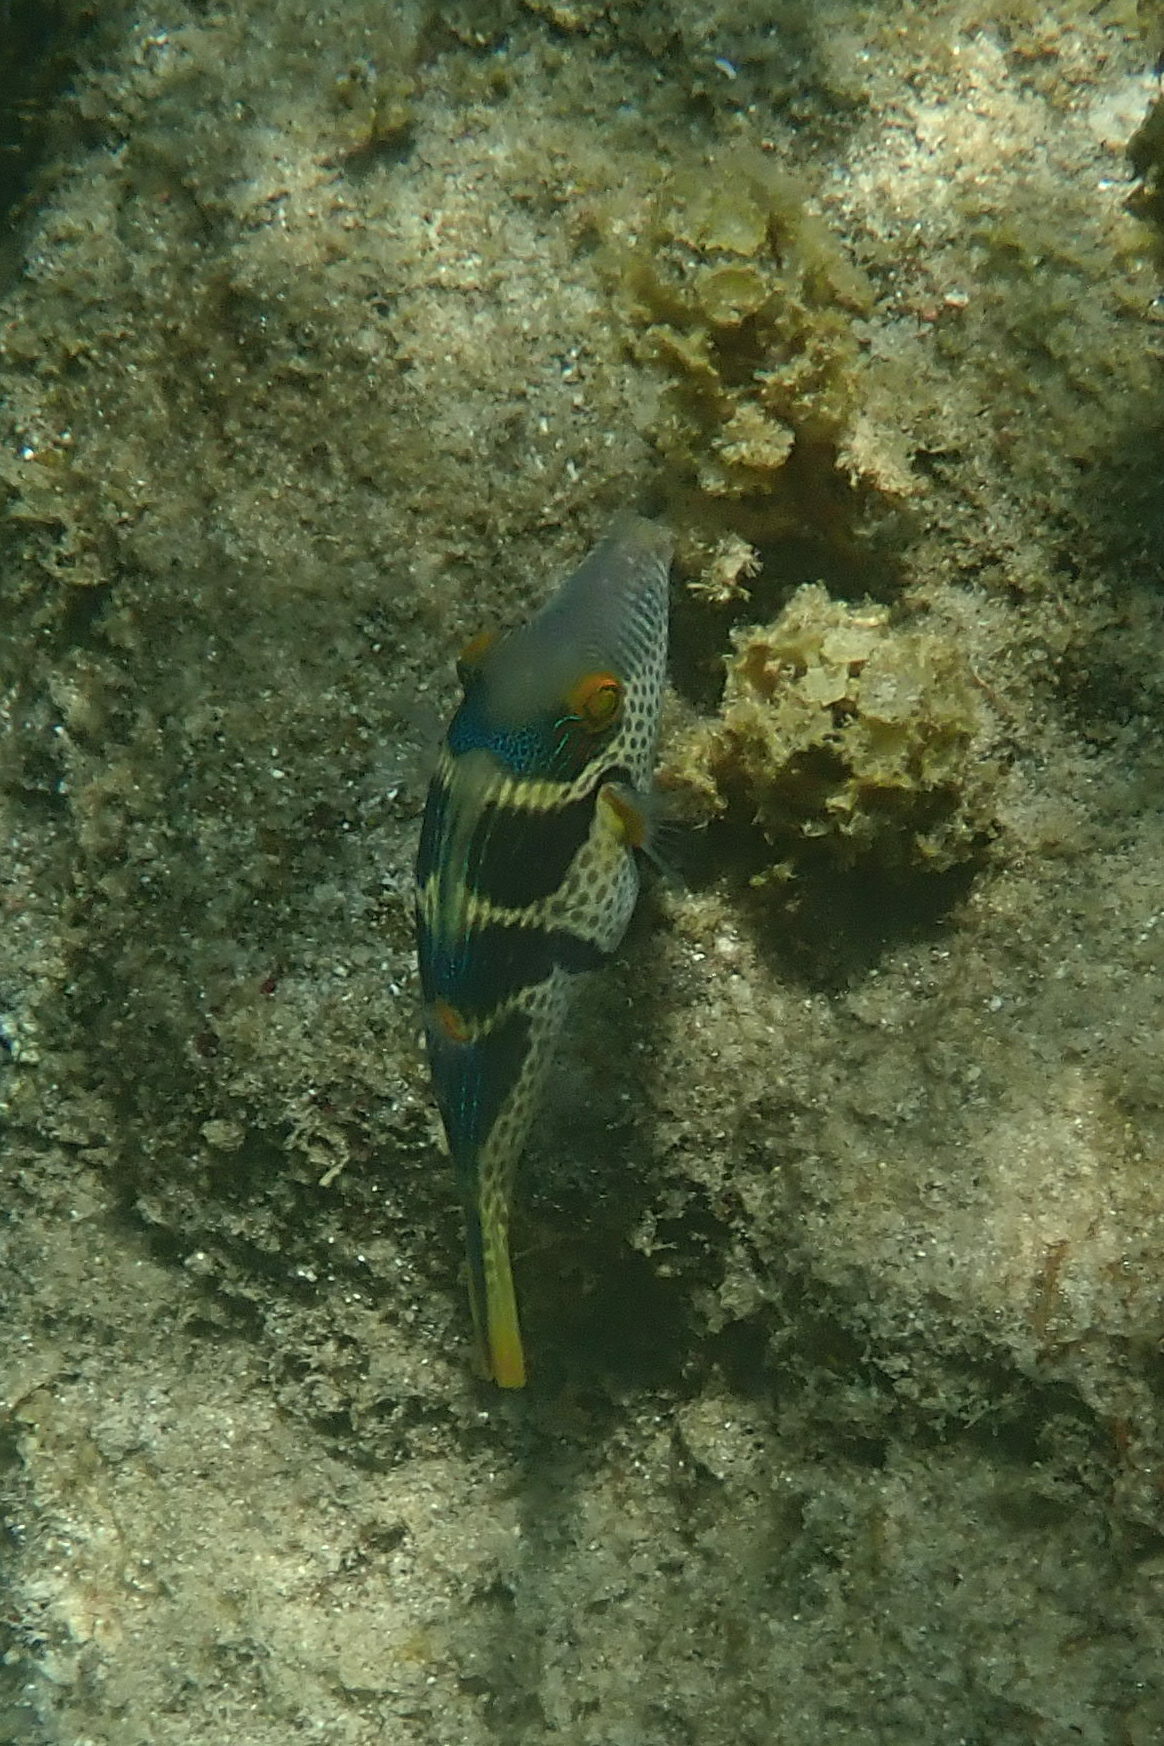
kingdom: Animalia
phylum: Chordata
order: Tetraodontiformes
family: Tetraodontidae
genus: Canthigaster
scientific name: Canthigaster valentini
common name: Banded toby
